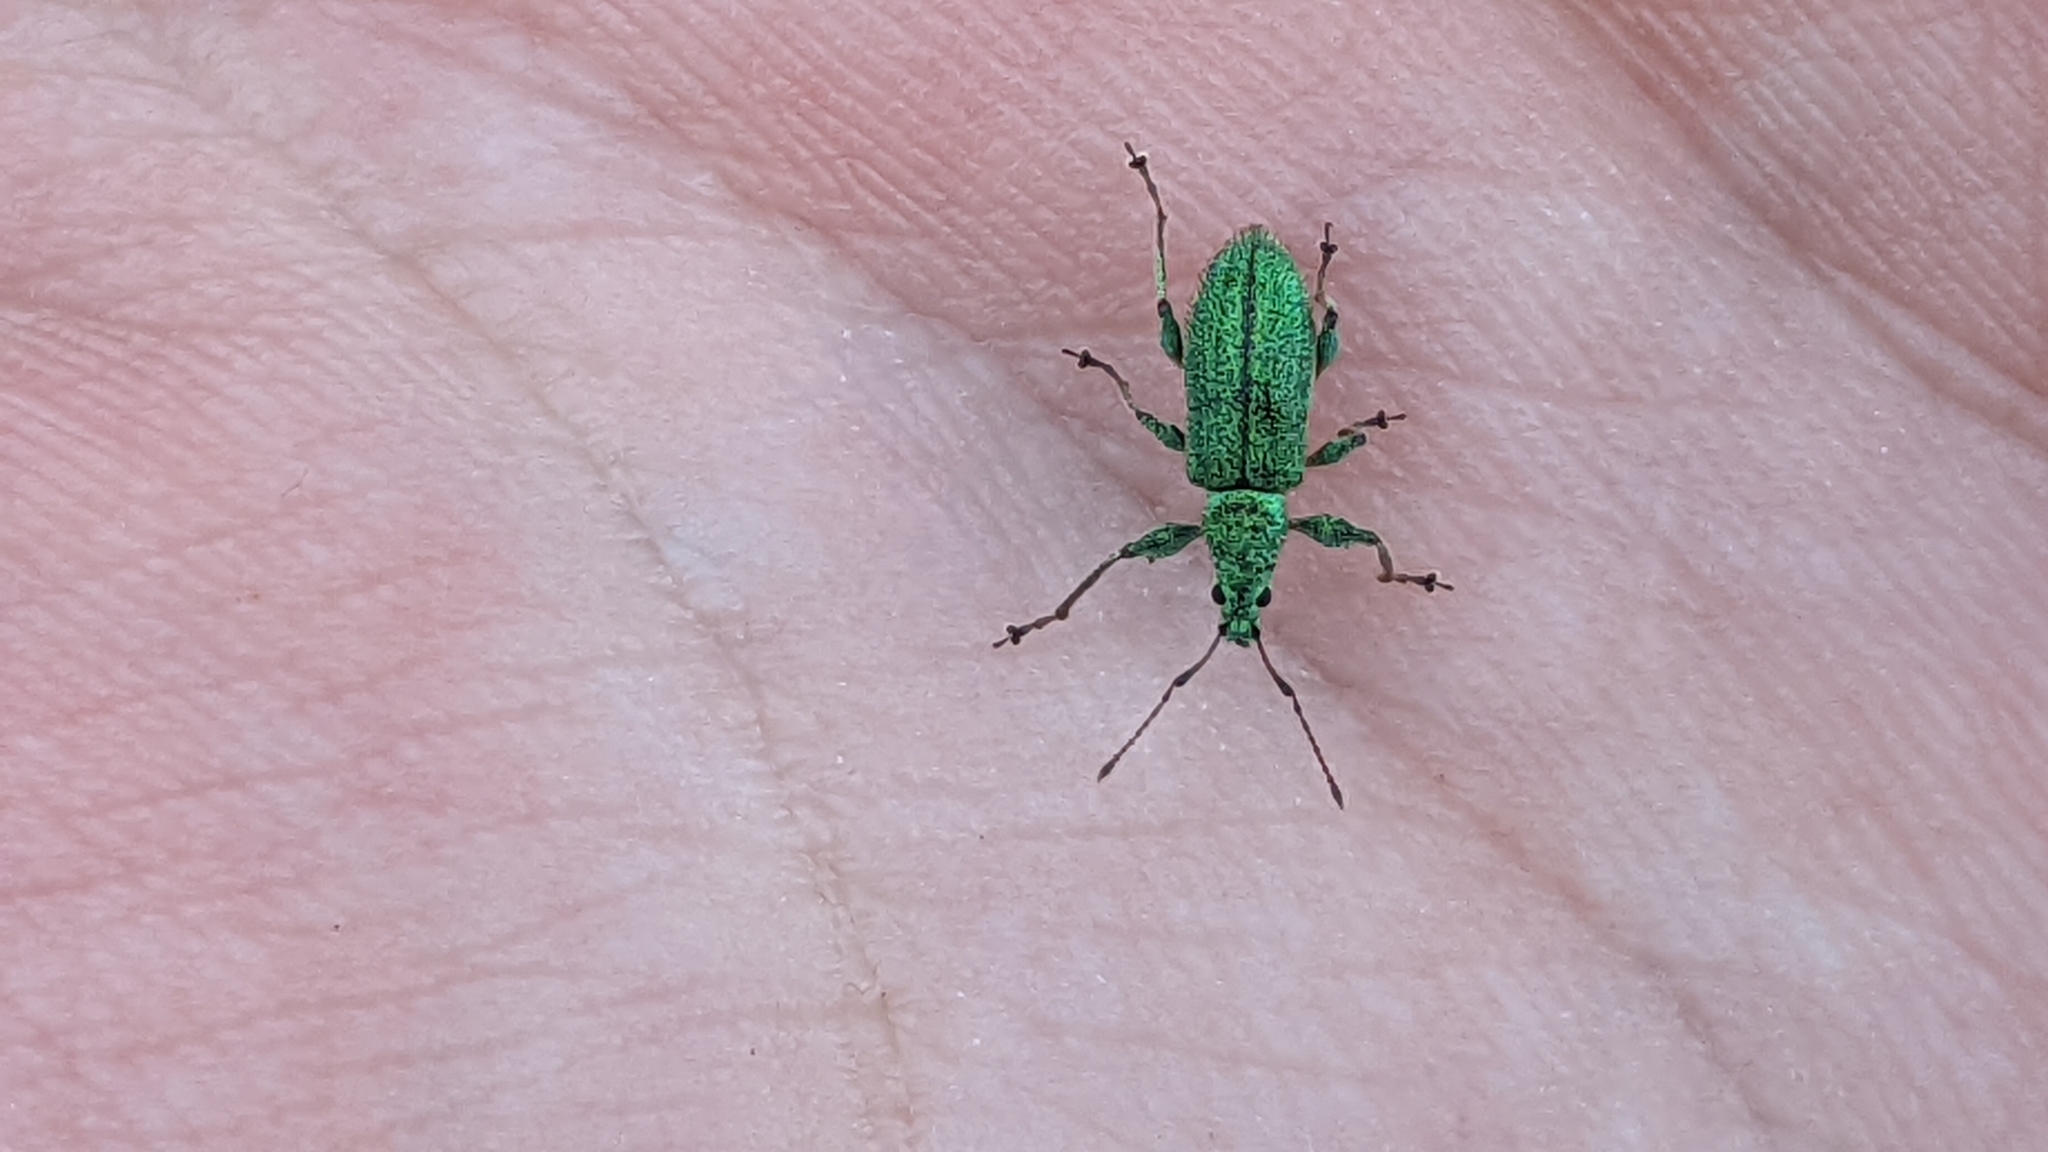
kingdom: Animalia
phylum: Arthropoda
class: Insecta
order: Coleoptera
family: Curculionidae
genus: Phyllobius
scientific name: Phyllobius arborator
